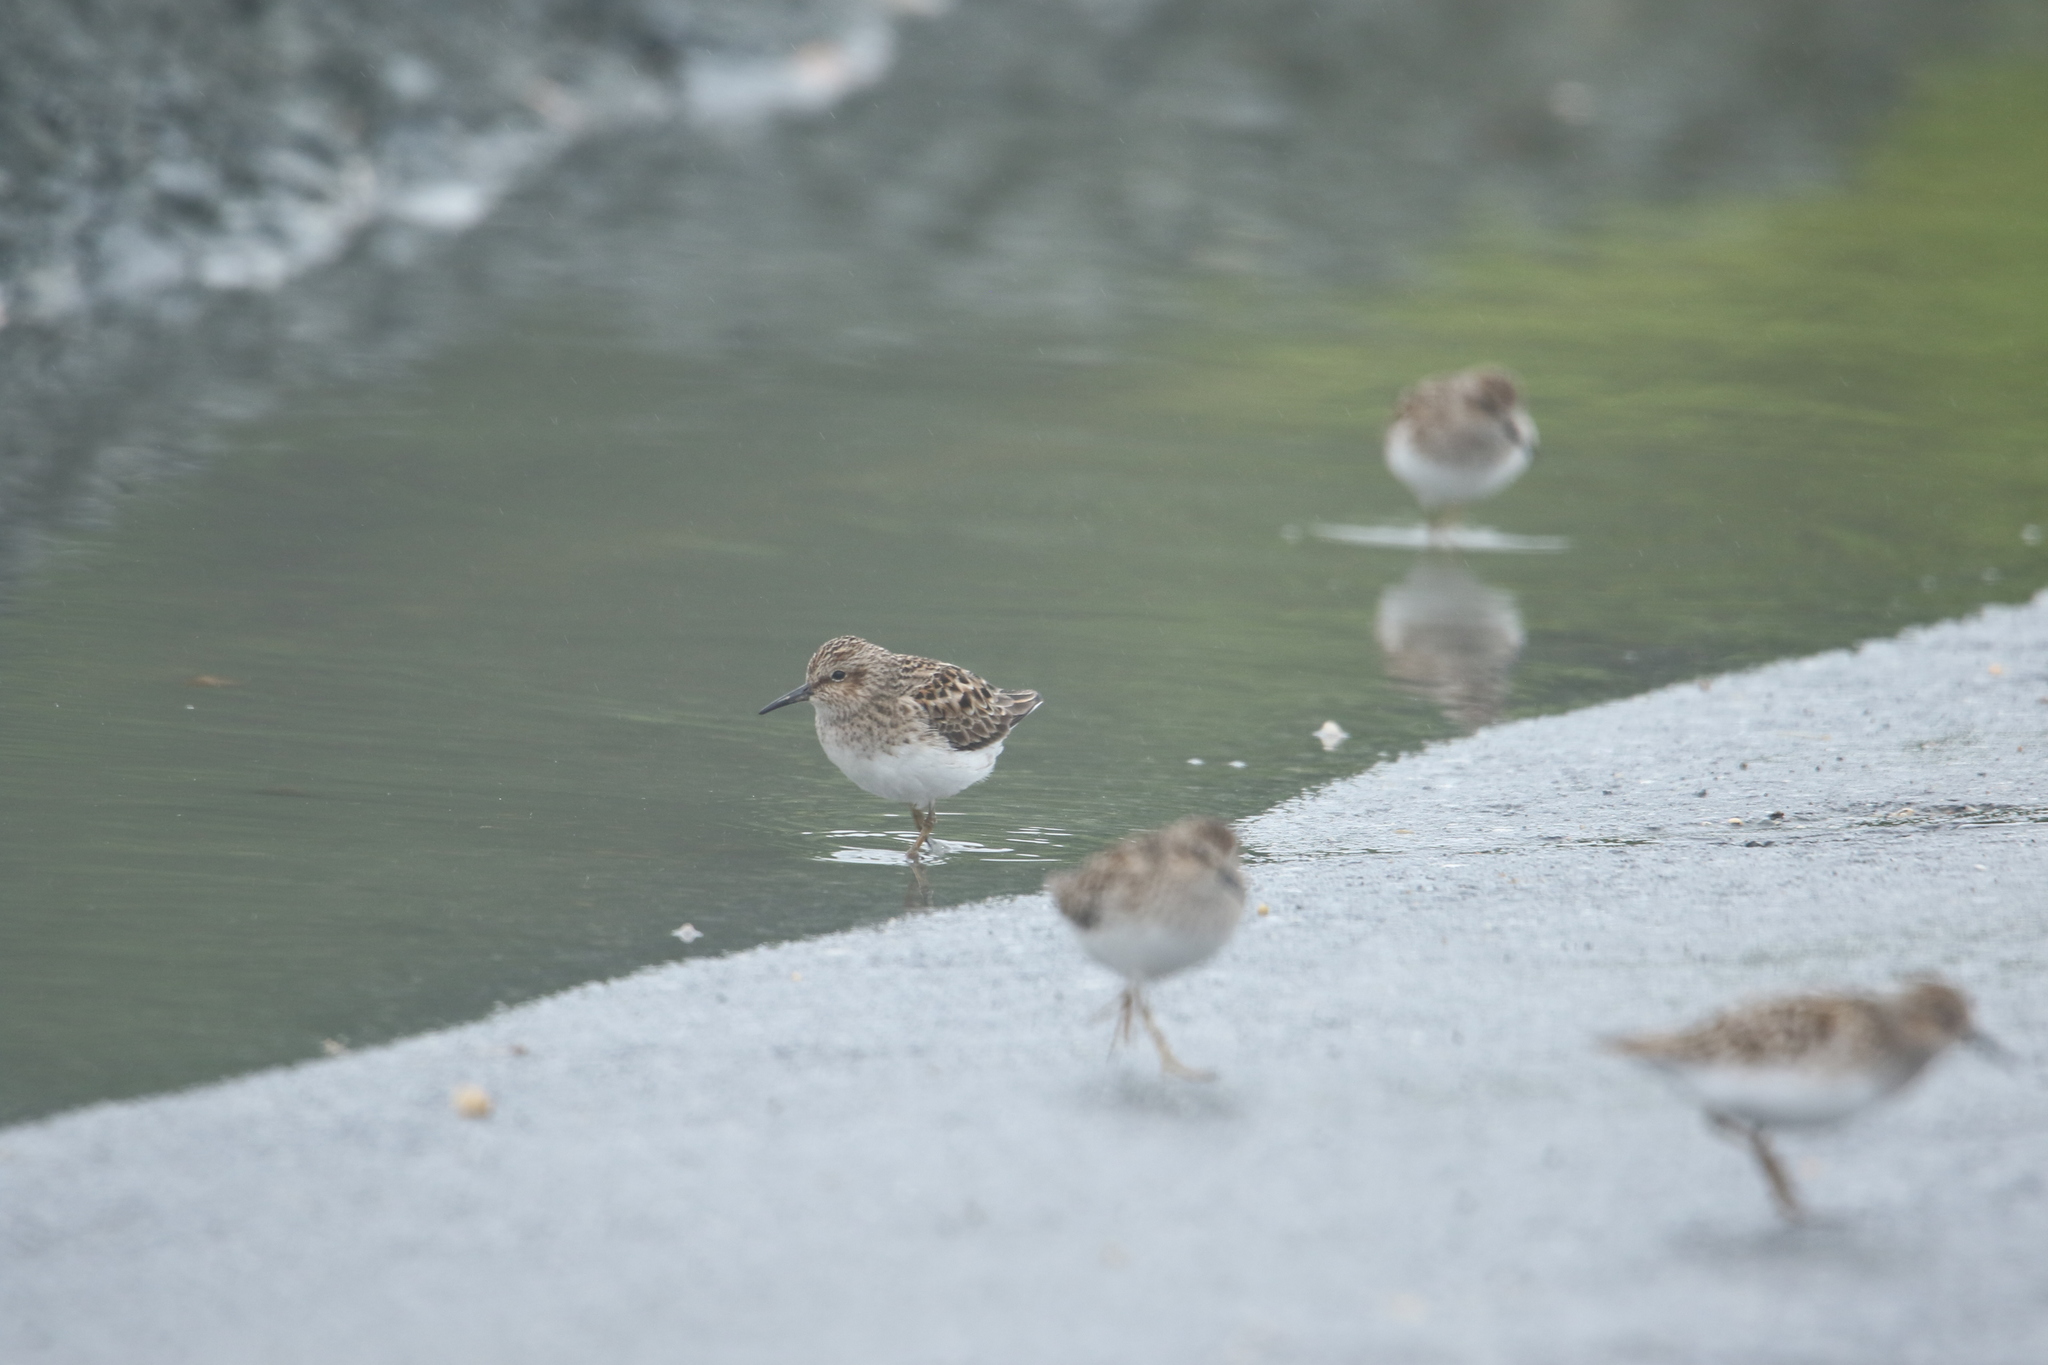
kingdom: Animalia
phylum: Chordata
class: Aves
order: Charadriiformes
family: Scolopacidae
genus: Calidris
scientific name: Calidris minutilla
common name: Least sandpiper
